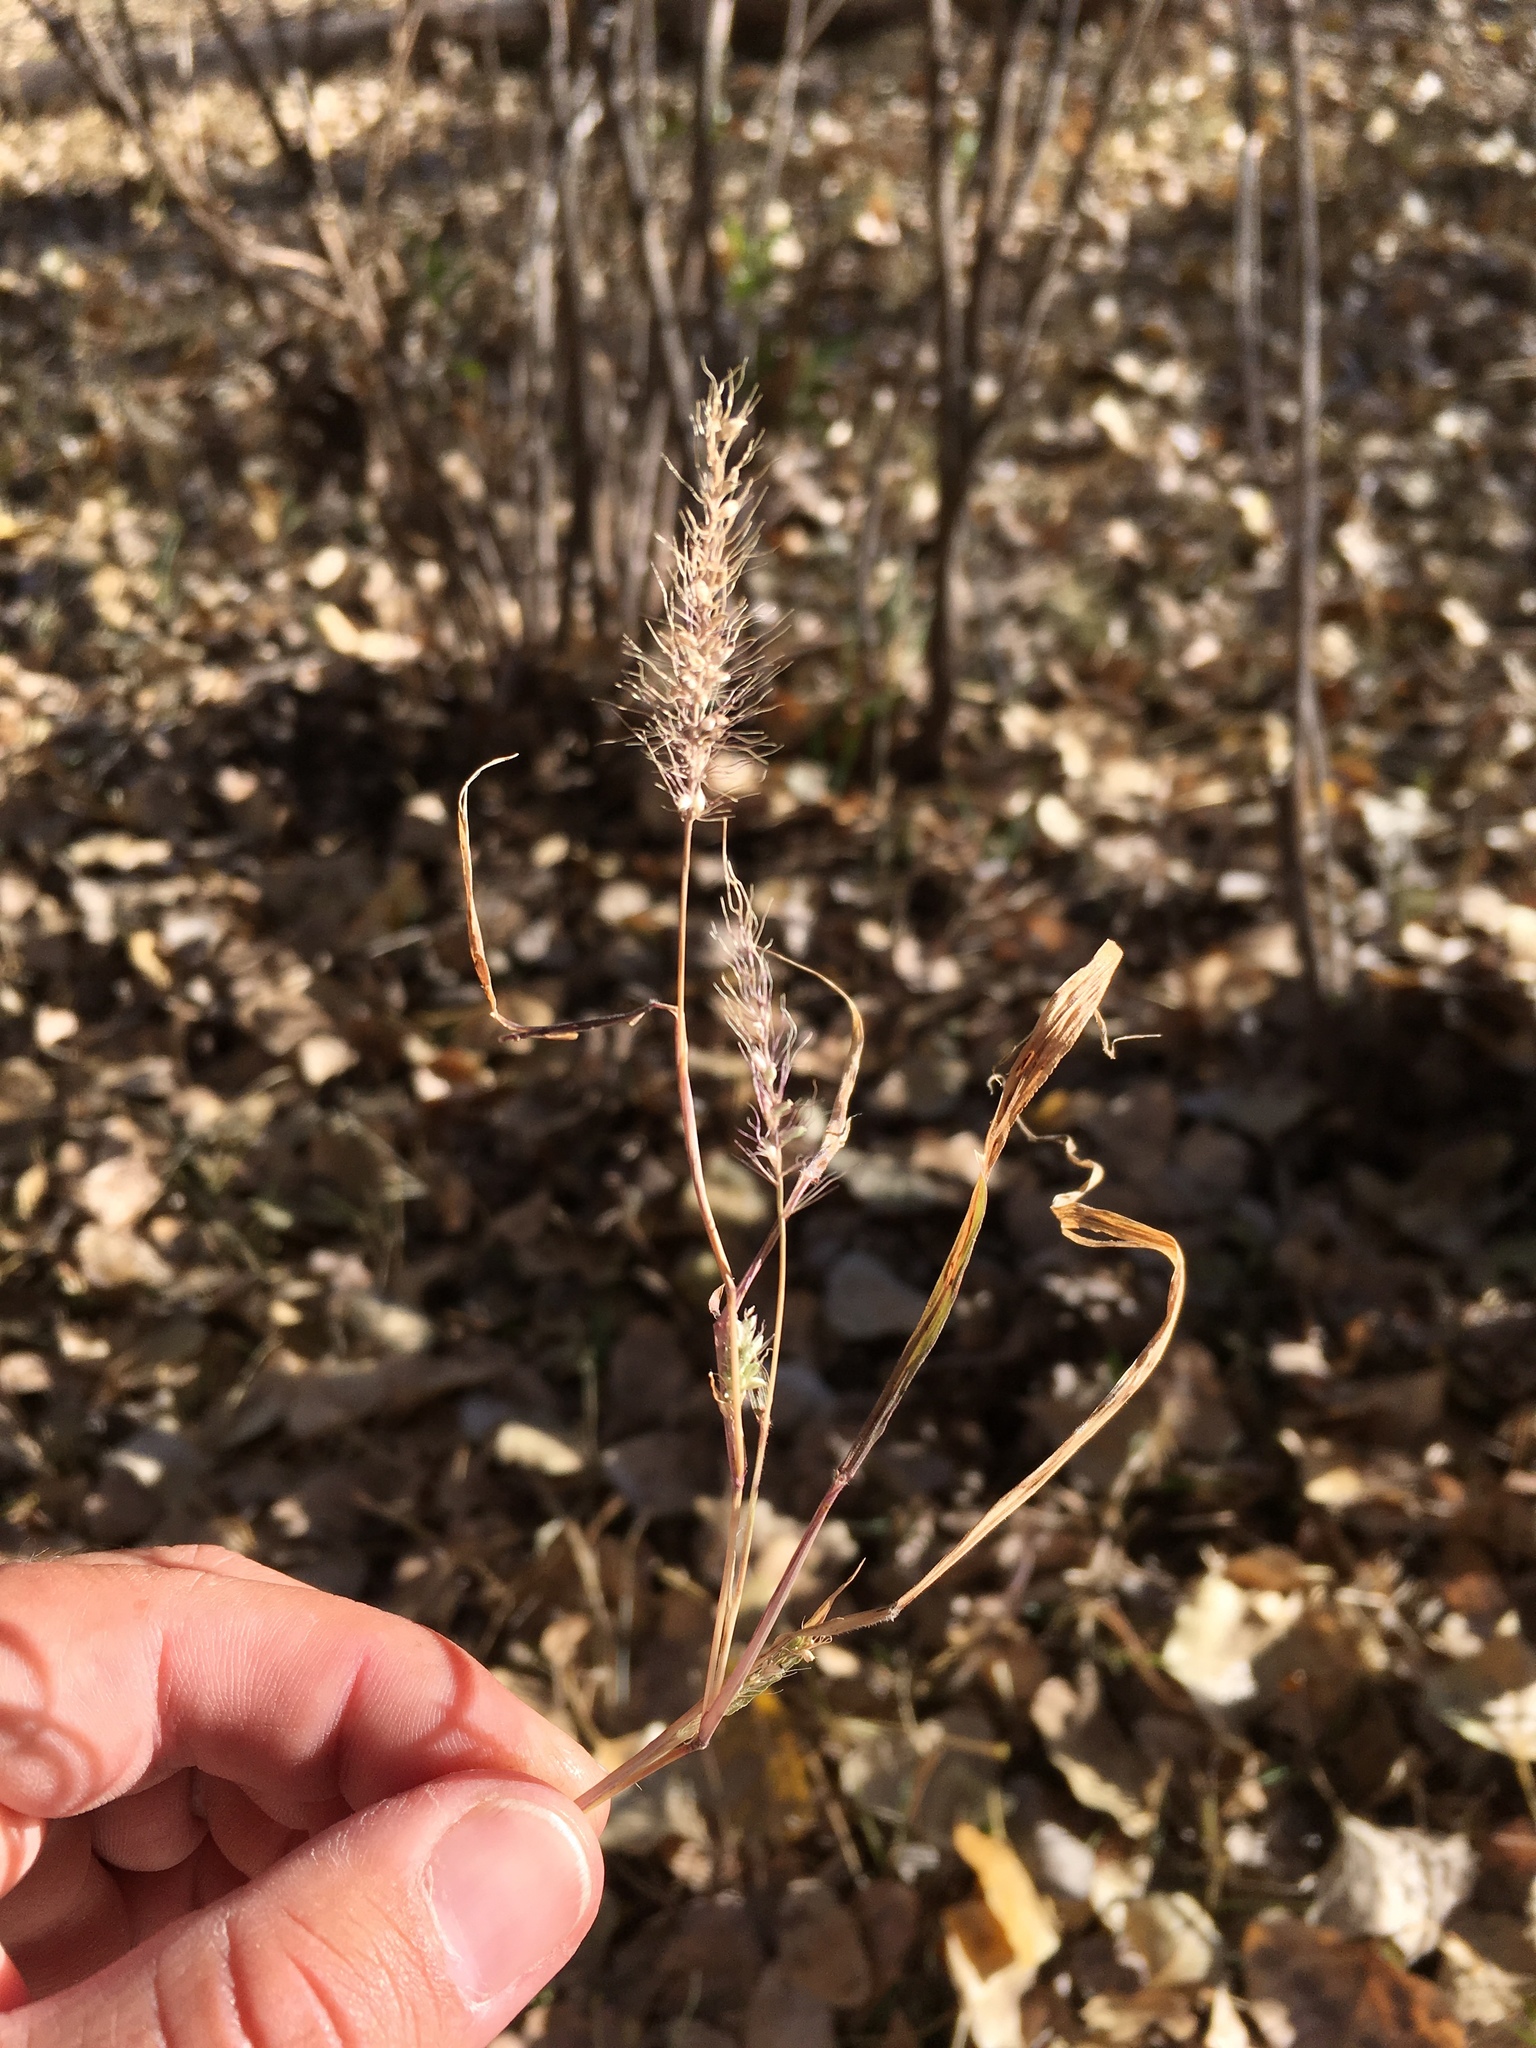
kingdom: Plantae
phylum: Tracheophyta
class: Liliopsida
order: Poales
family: Poaceae
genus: Setaria
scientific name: Setaria viridis
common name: Green bristlegrass
